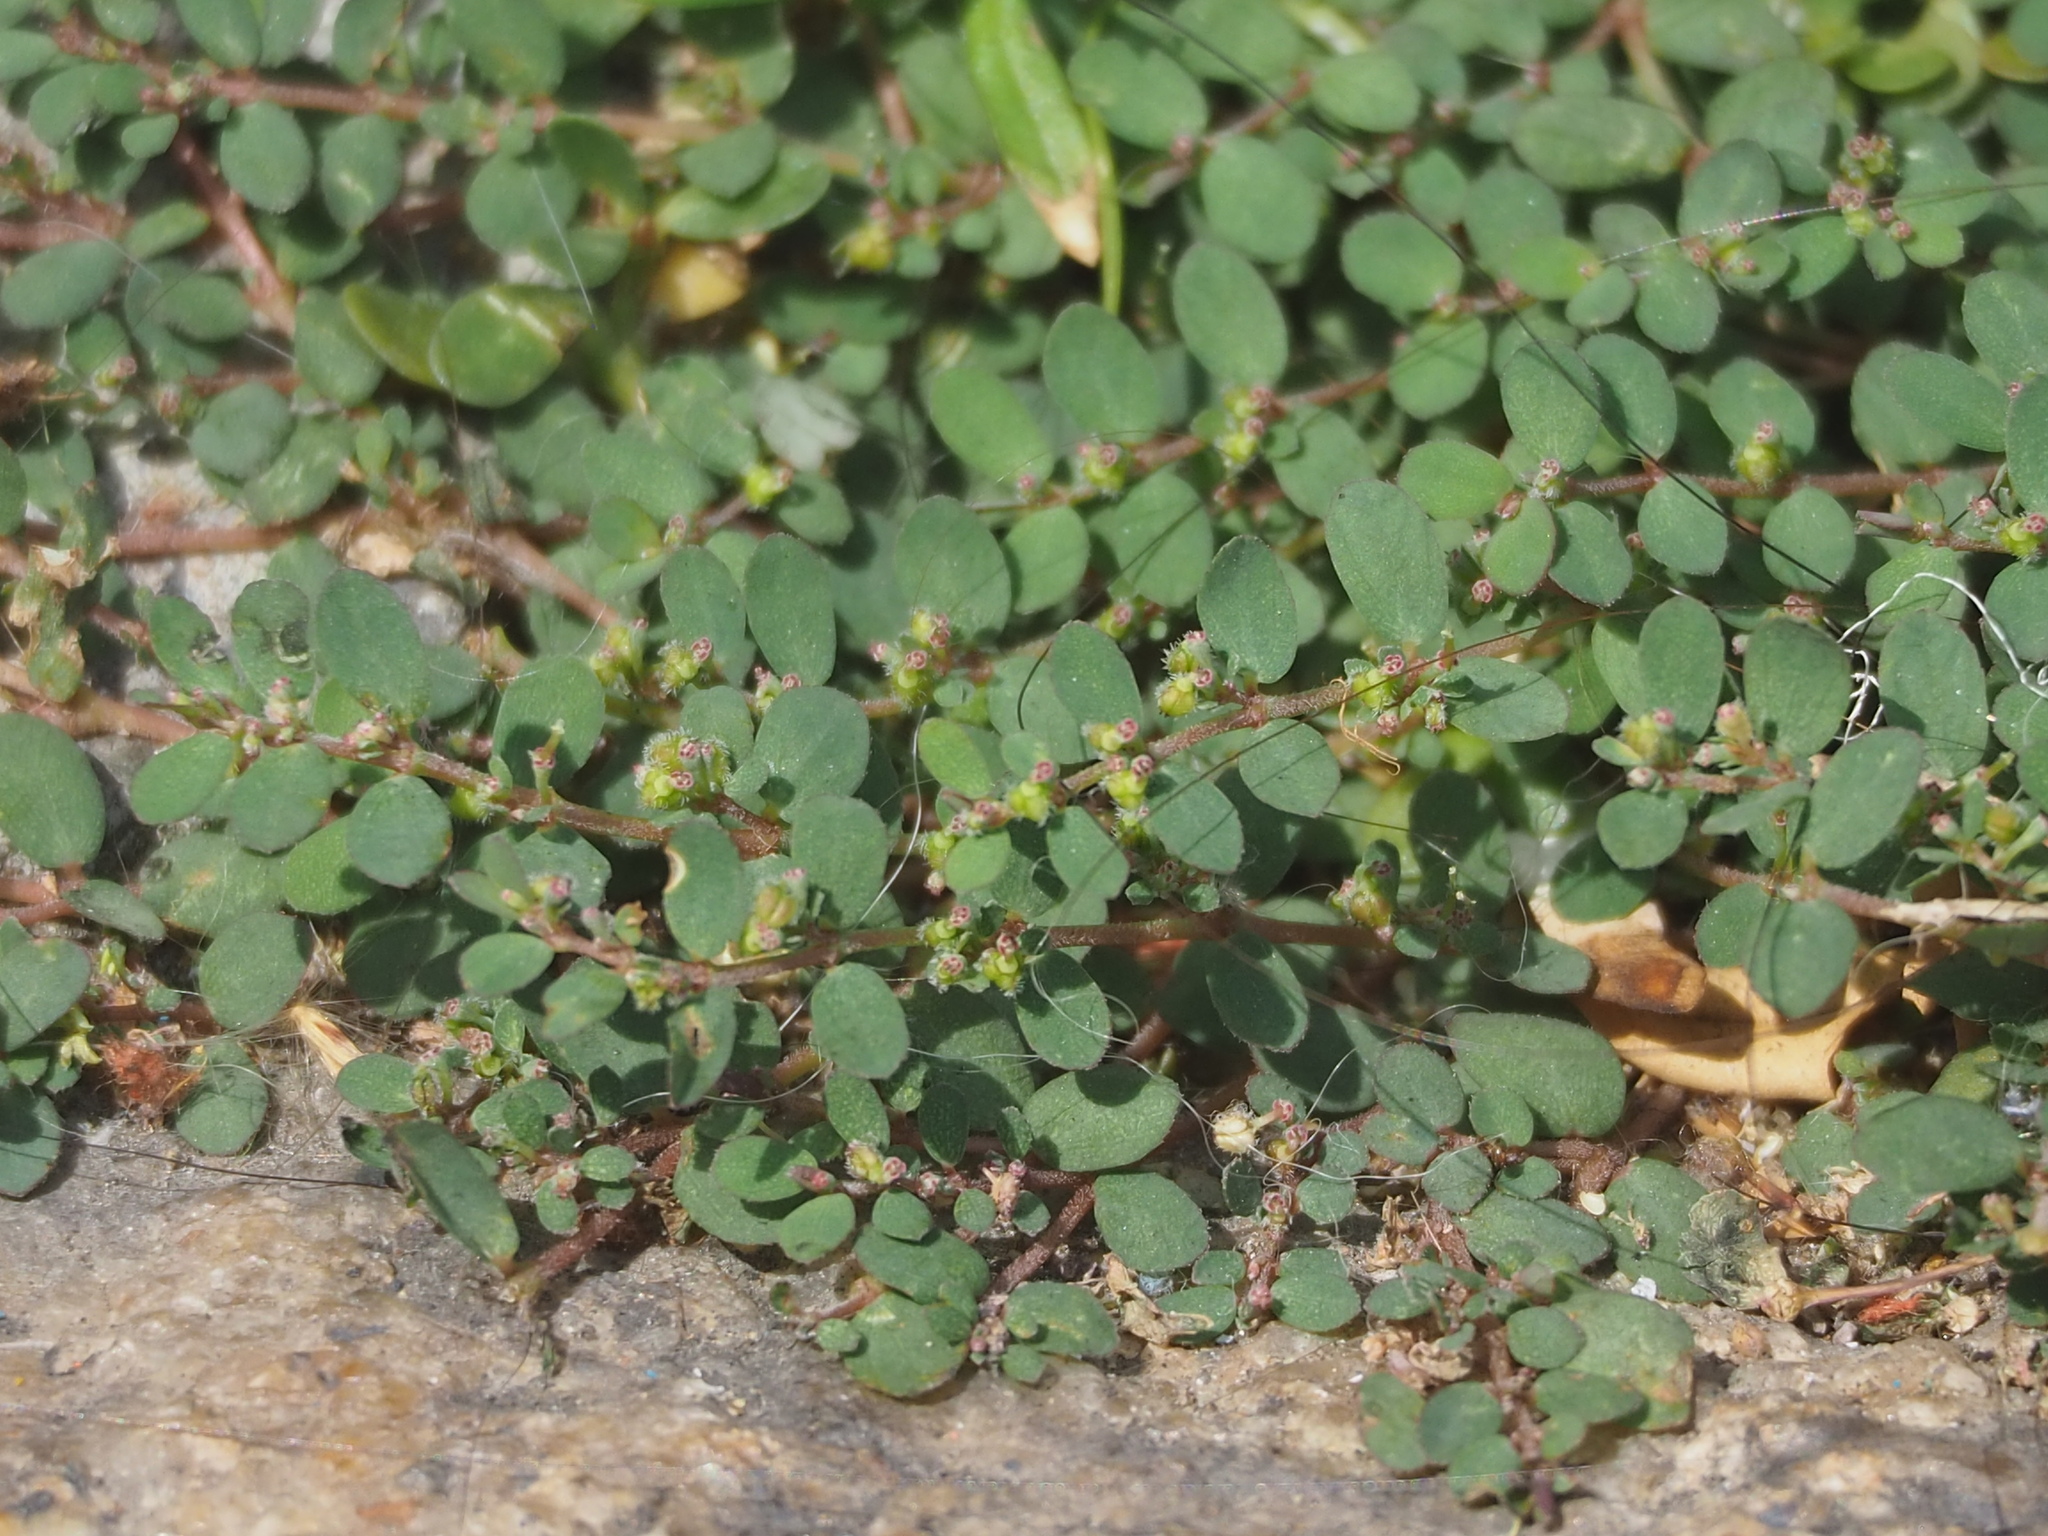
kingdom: Plantae
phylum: Tracheophyta
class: Magnoliopsida
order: Malpighiales
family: Euphorbiaceae
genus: Euphorbia
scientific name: Euphorbia prostrata
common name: Prostrate sandmat
